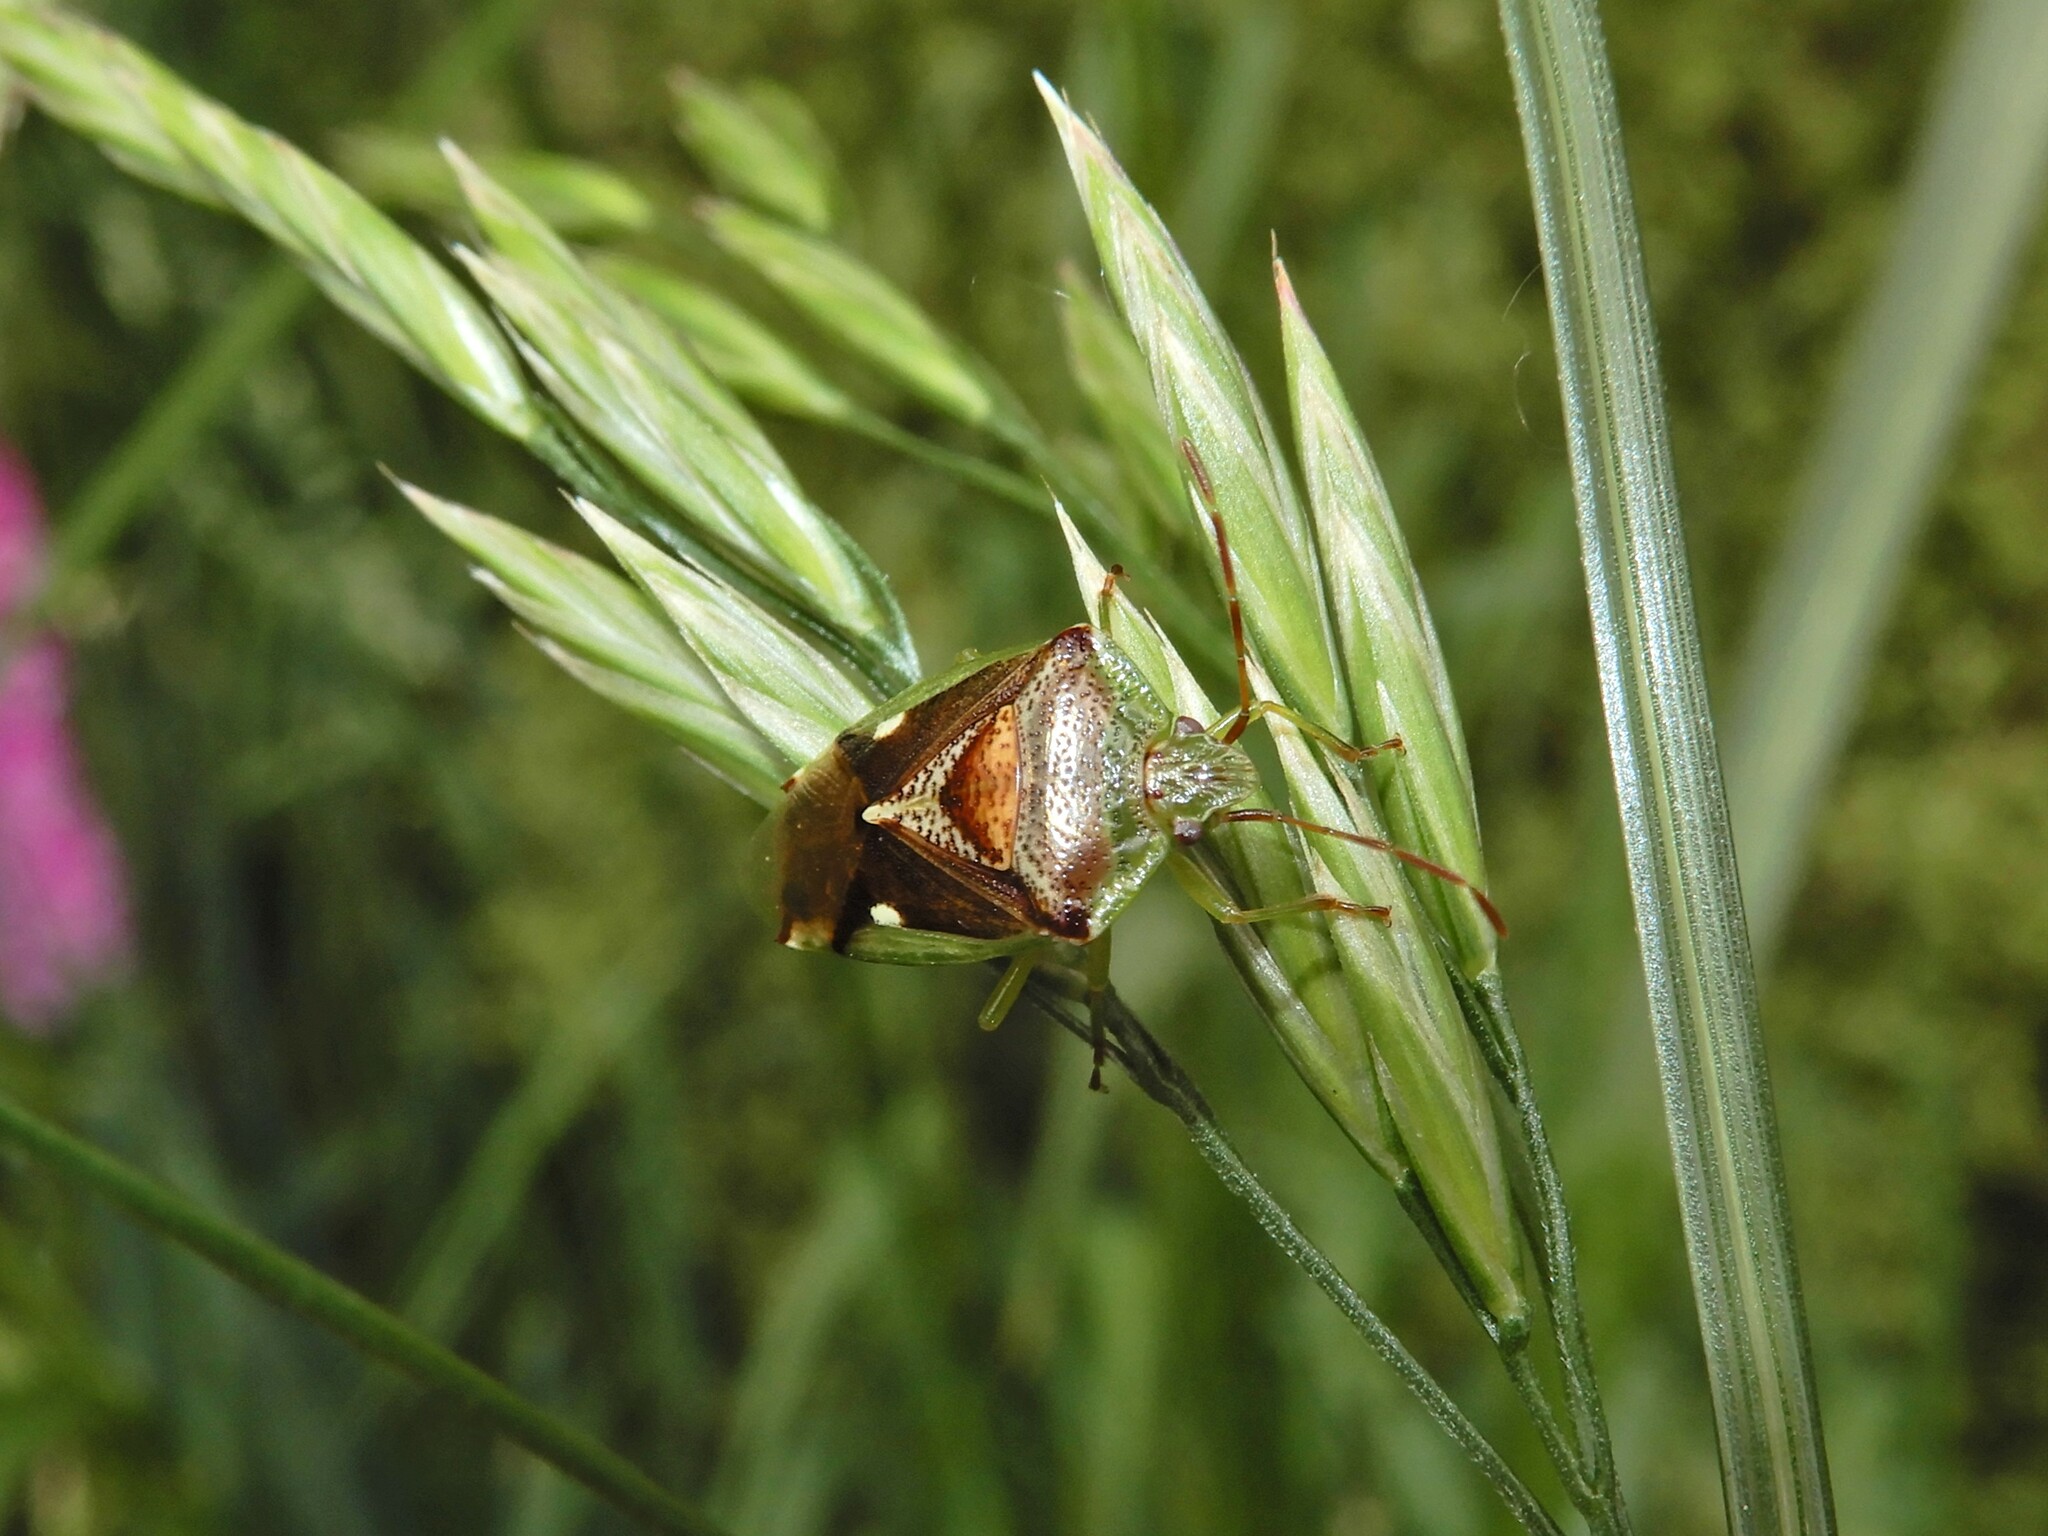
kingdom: Animalia
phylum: Arthropoda
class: Insecta
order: Hemiptera
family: Acanthosomatidae
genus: Oncacontias
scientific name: Oncacontias vittatus
